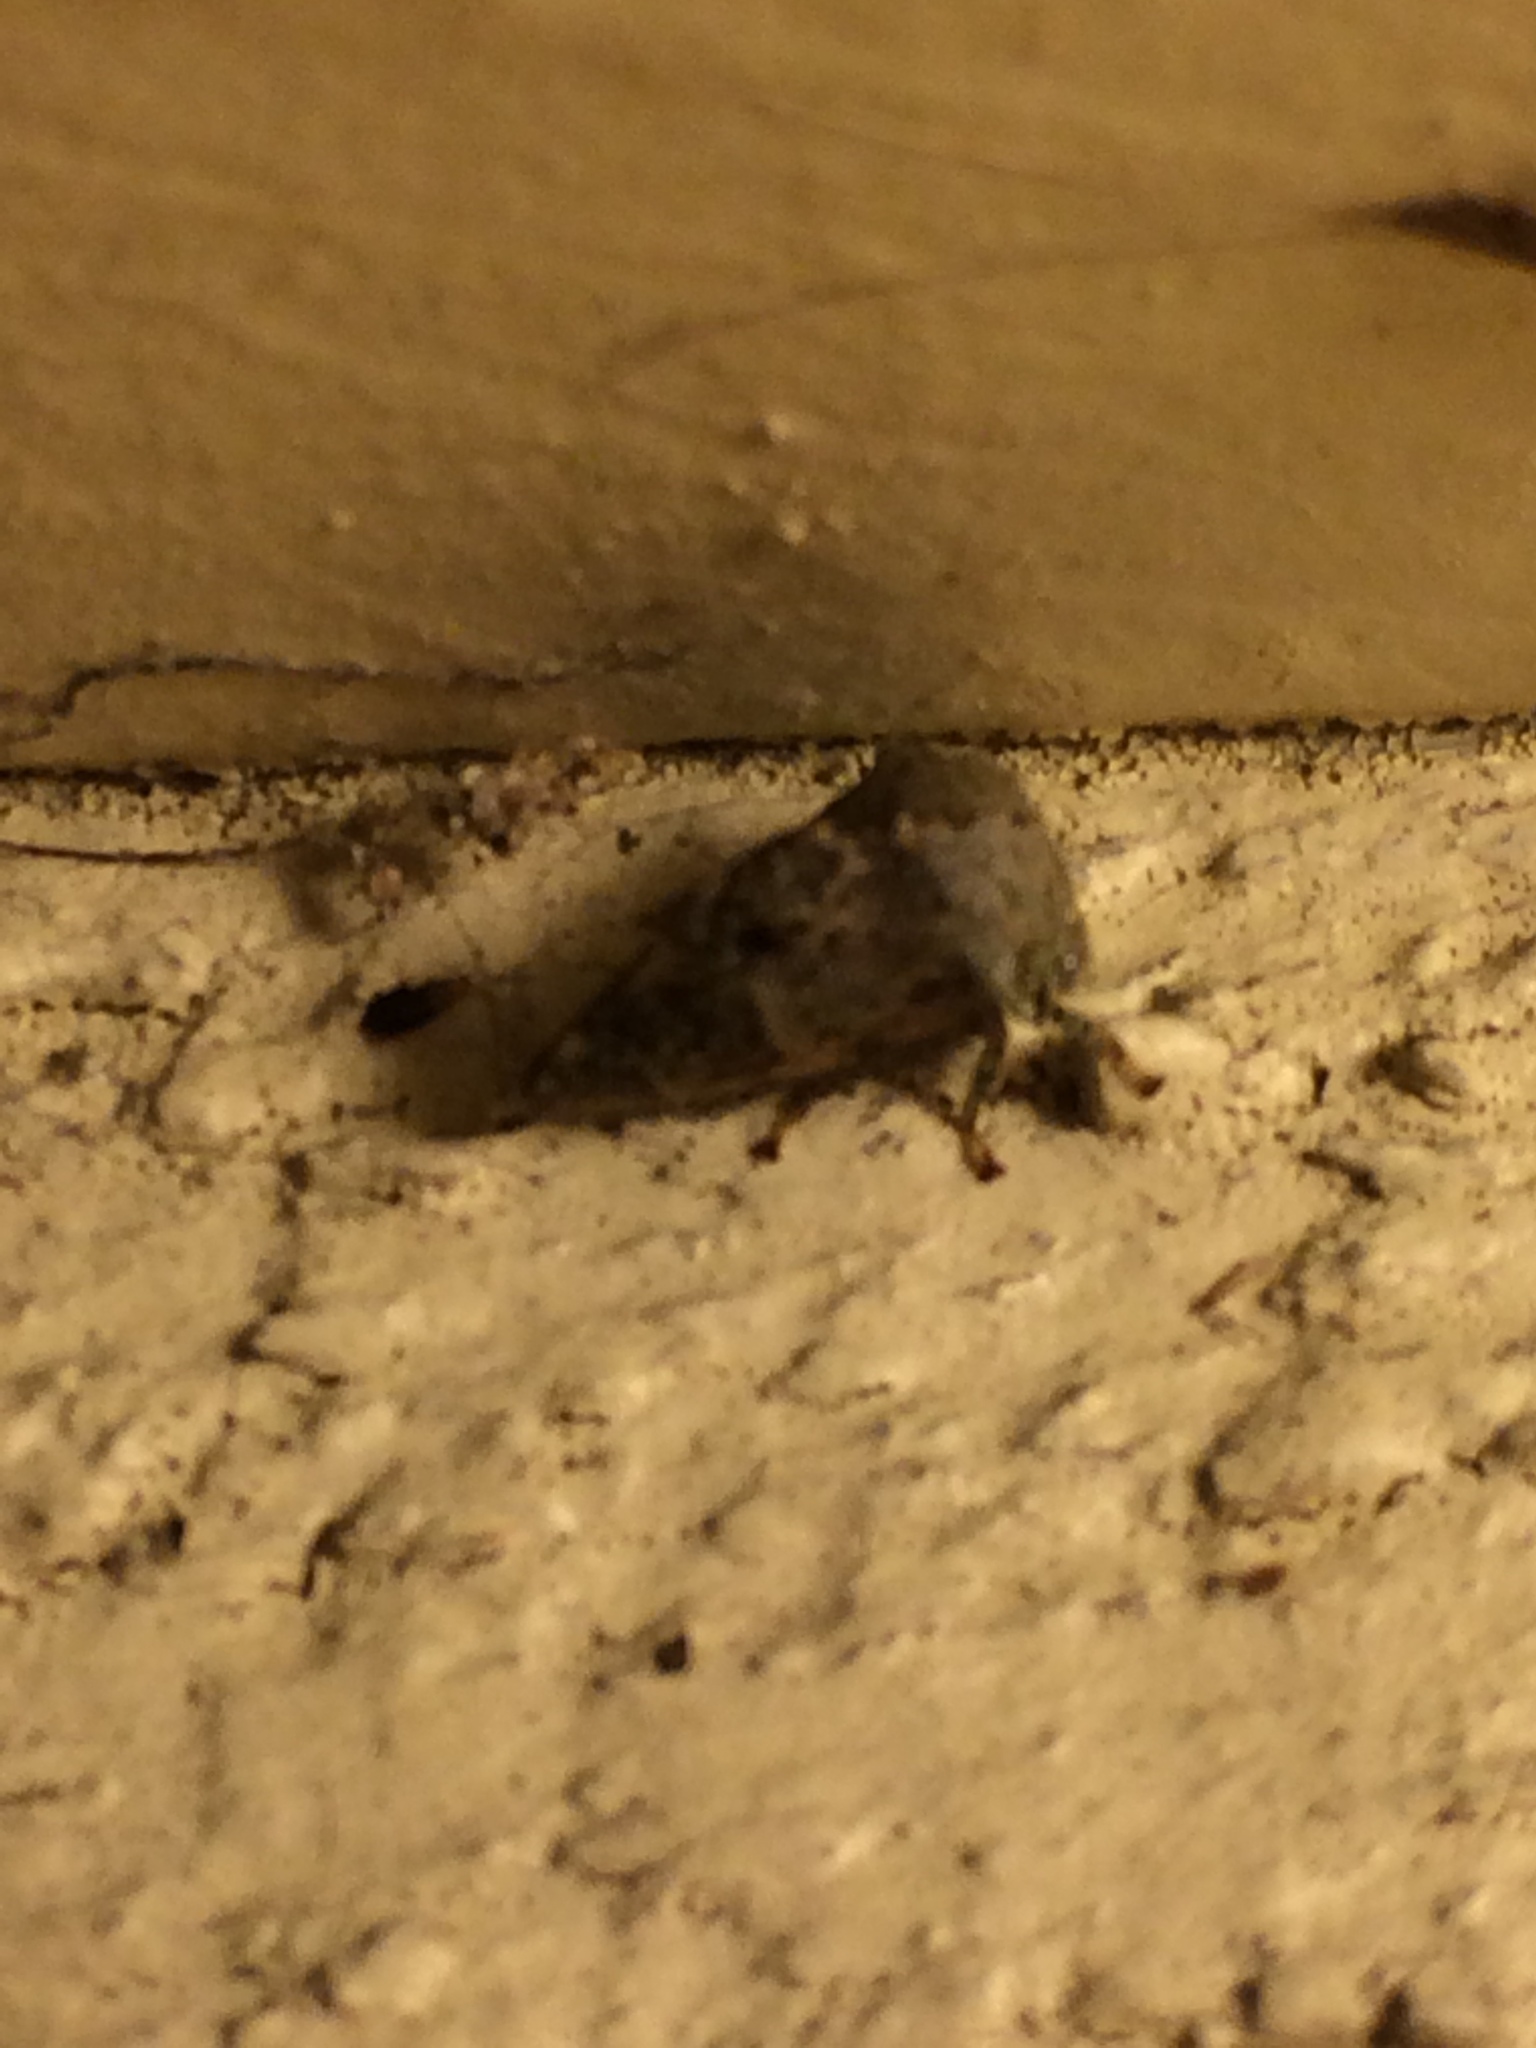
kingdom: Animalia
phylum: Arthropoda
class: Insecta
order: Hemiptera
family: Membracidae
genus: Telamona
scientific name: Telamona
